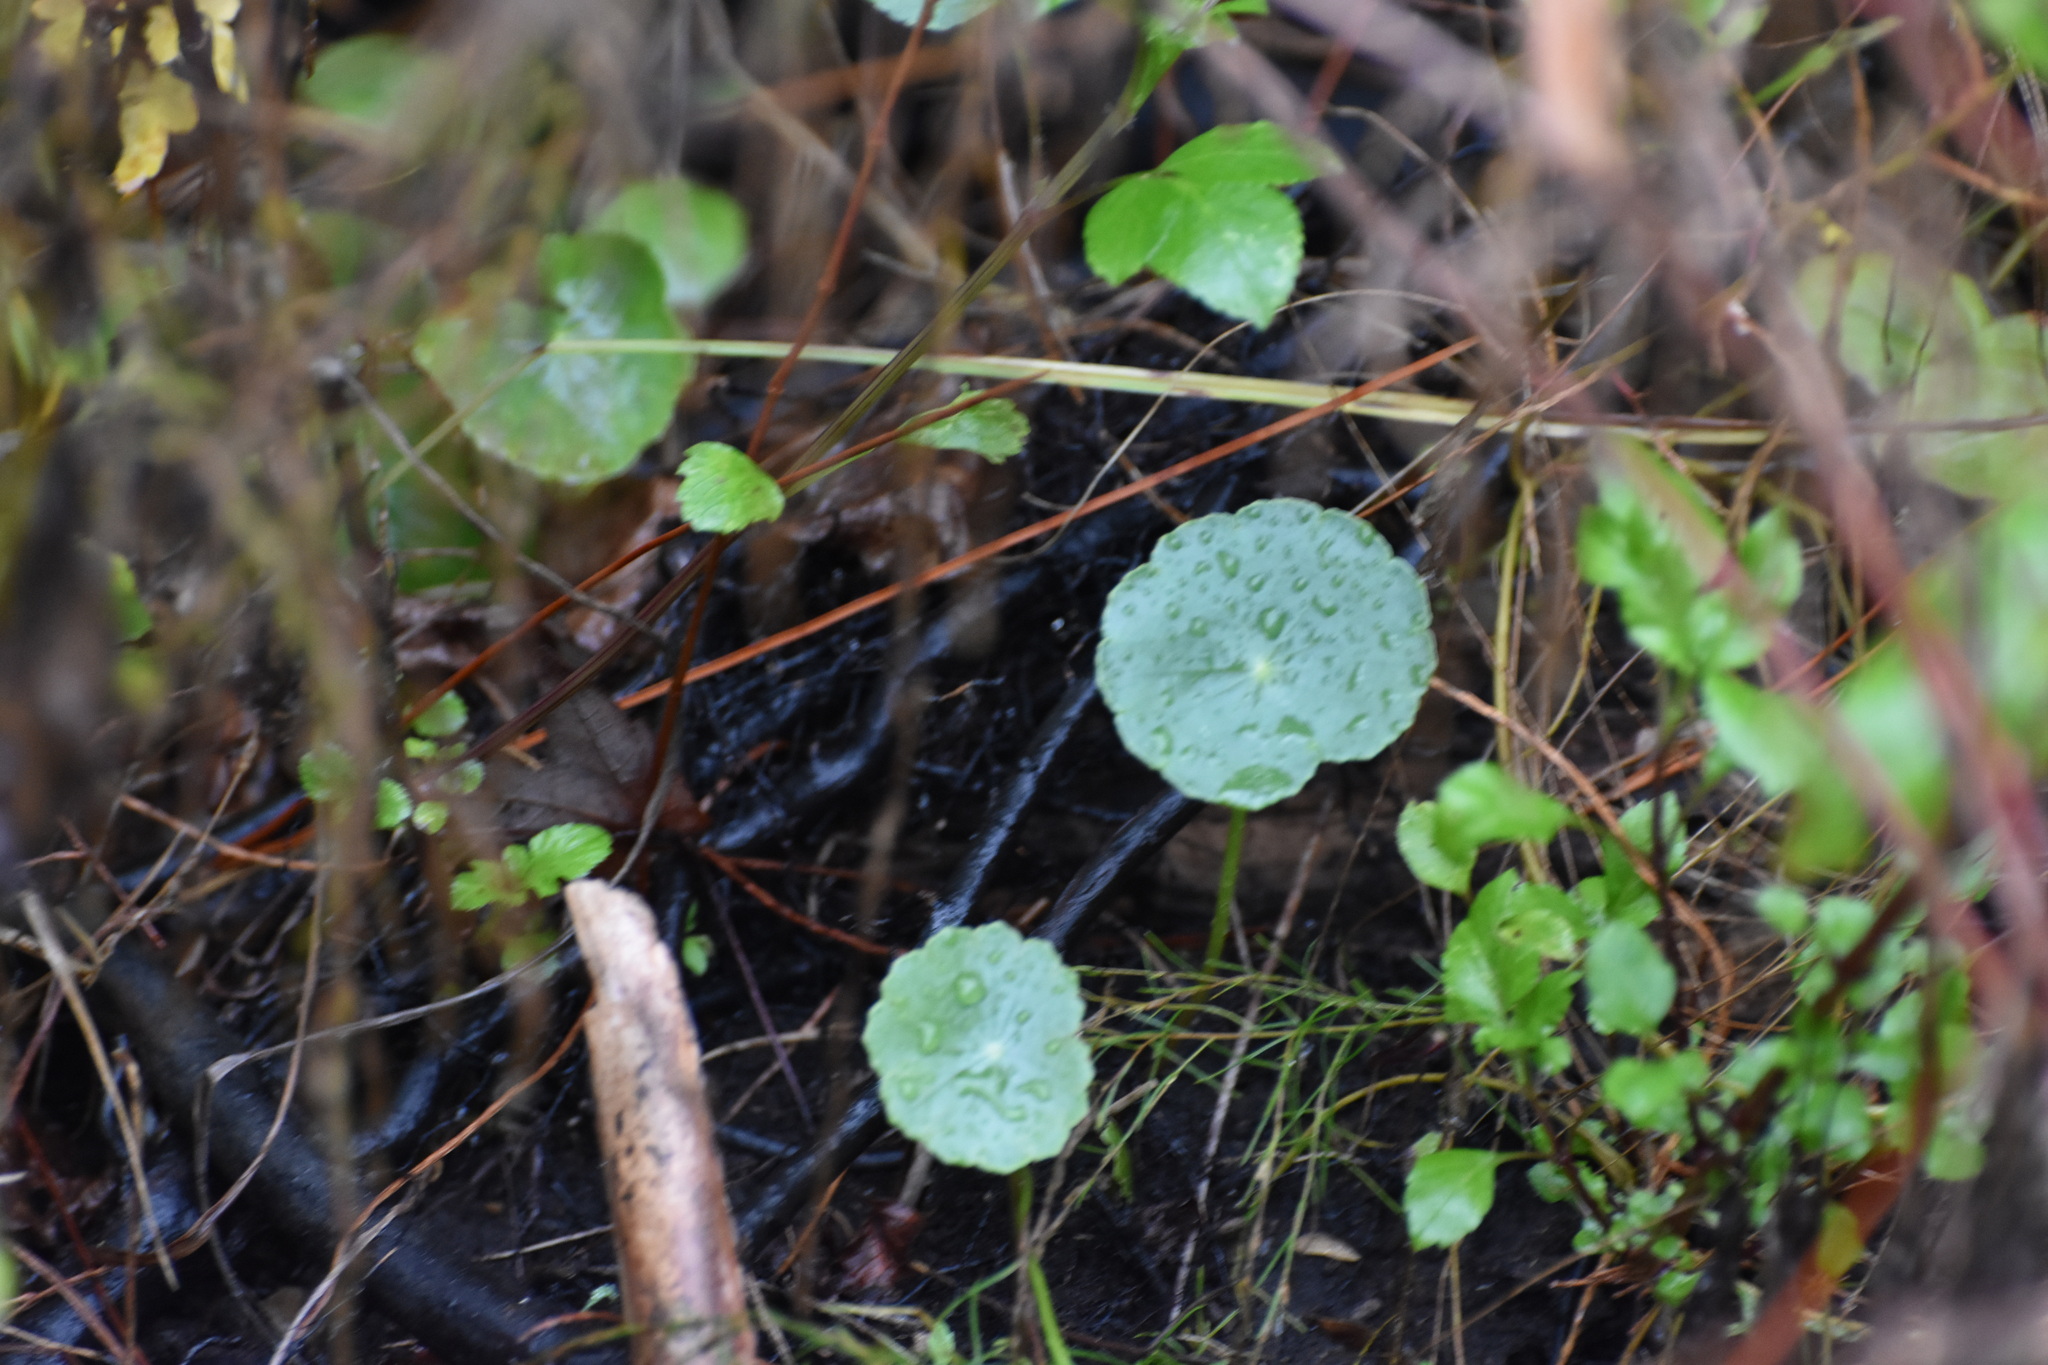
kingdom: Plantae
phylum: Tracheophyta
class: Magnoliopsida
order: Apiales
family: Araliaceae
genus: Hydrocotyle
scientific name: Hydrocotyle
